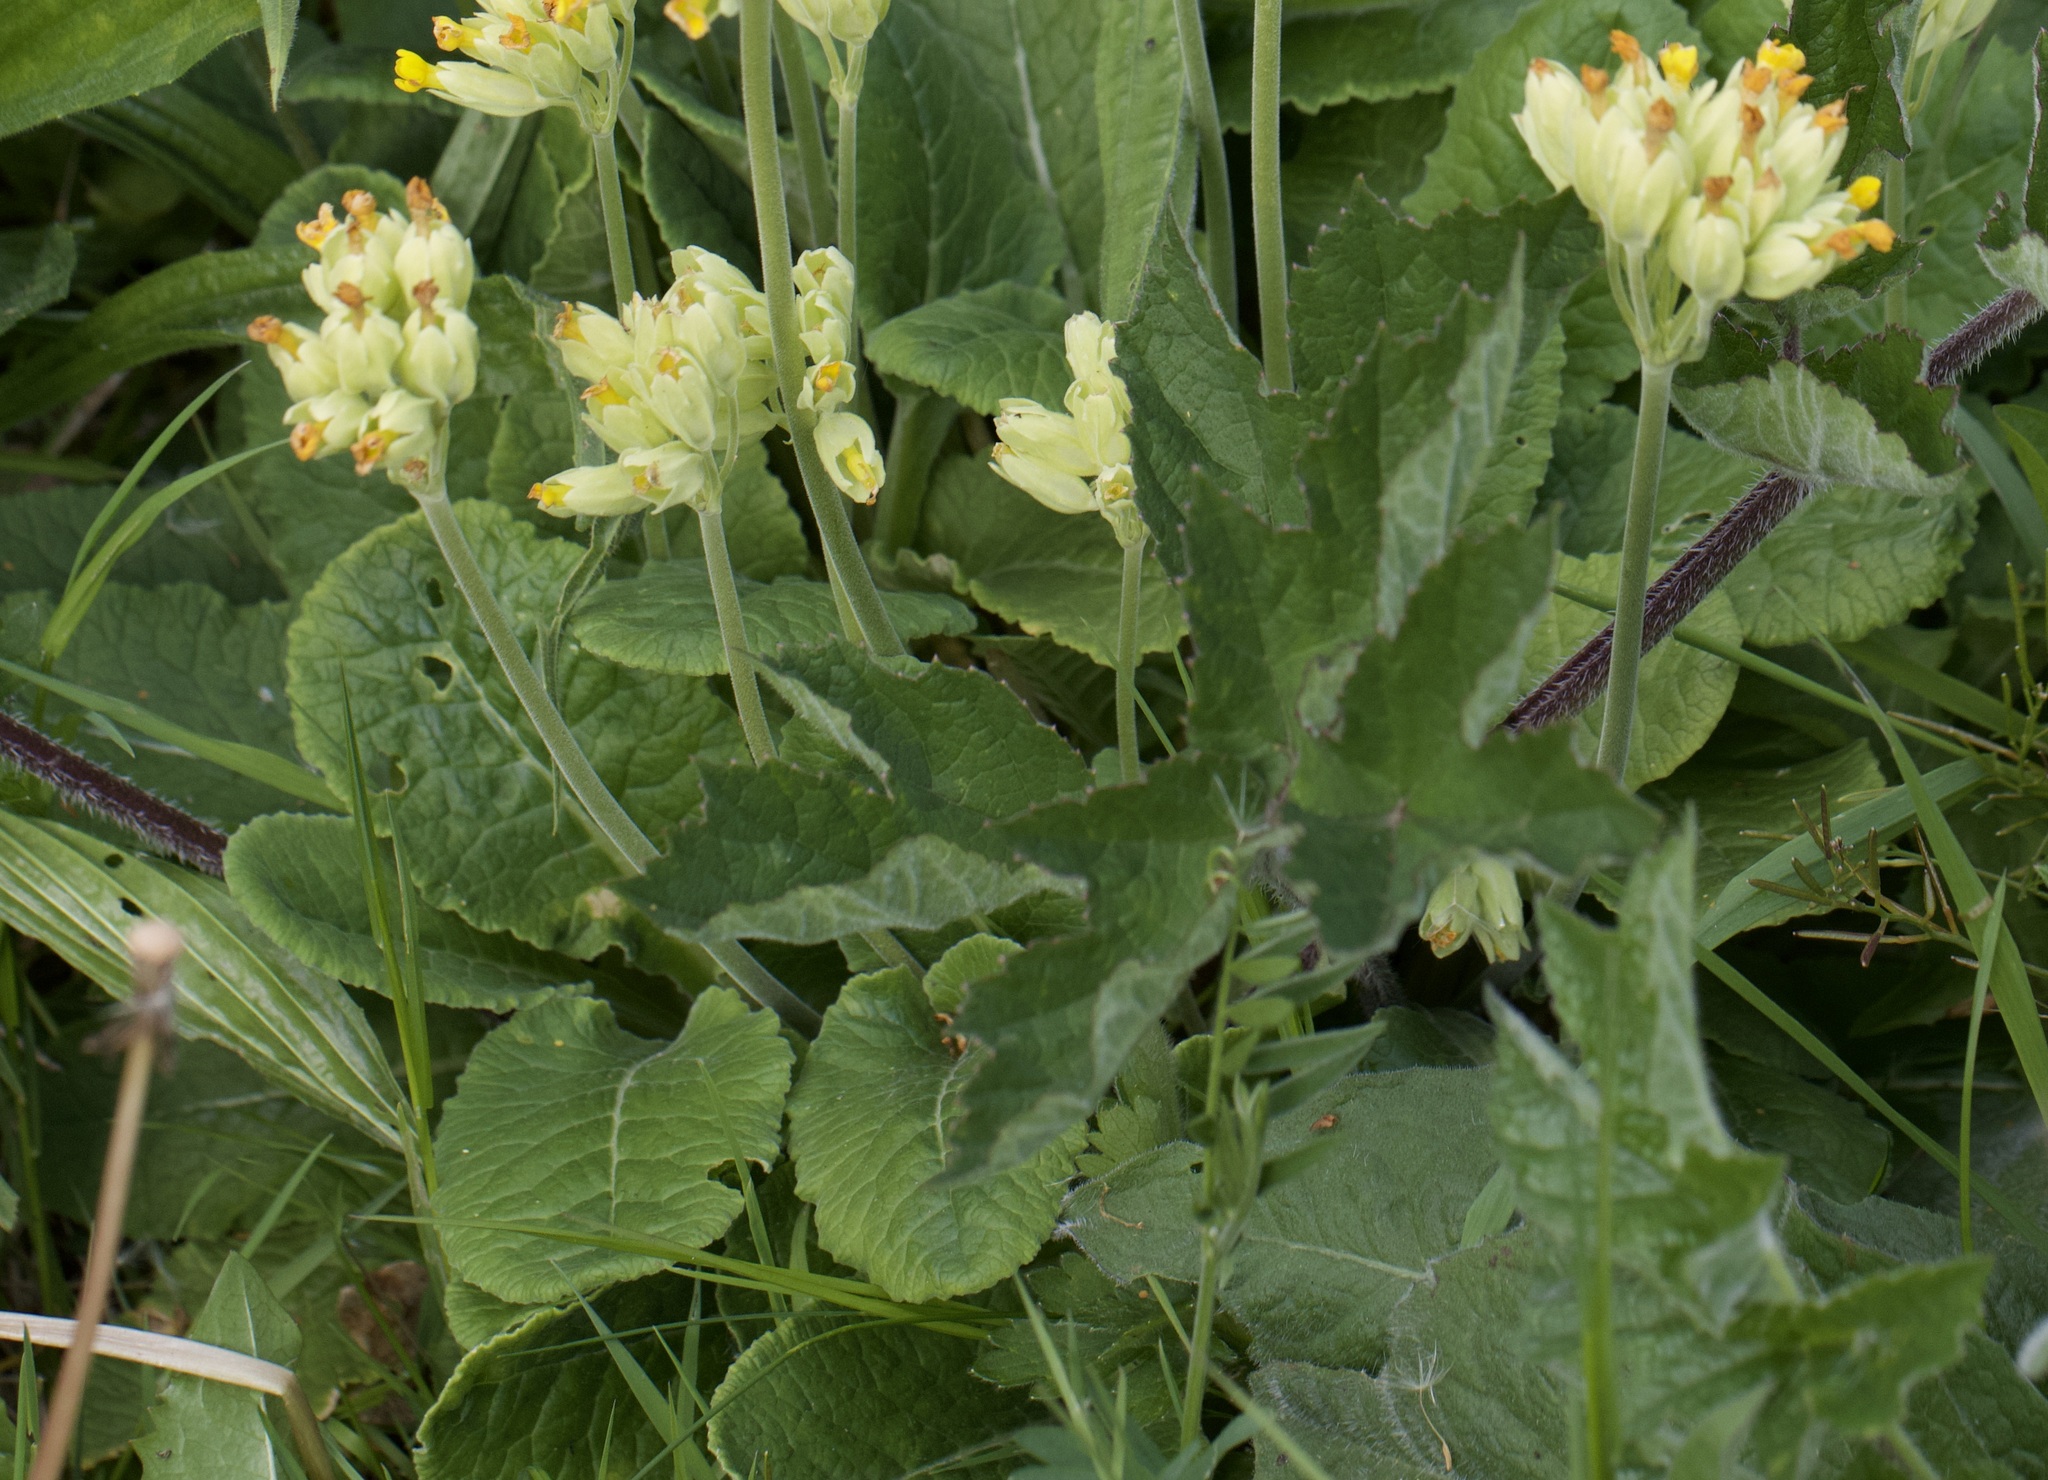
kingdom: Plantae
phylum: Tracheophyta
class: Magnoliopsida
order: Ericales
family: Primulaceae
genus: Primula
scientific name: Primula veris
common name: Cowslip
